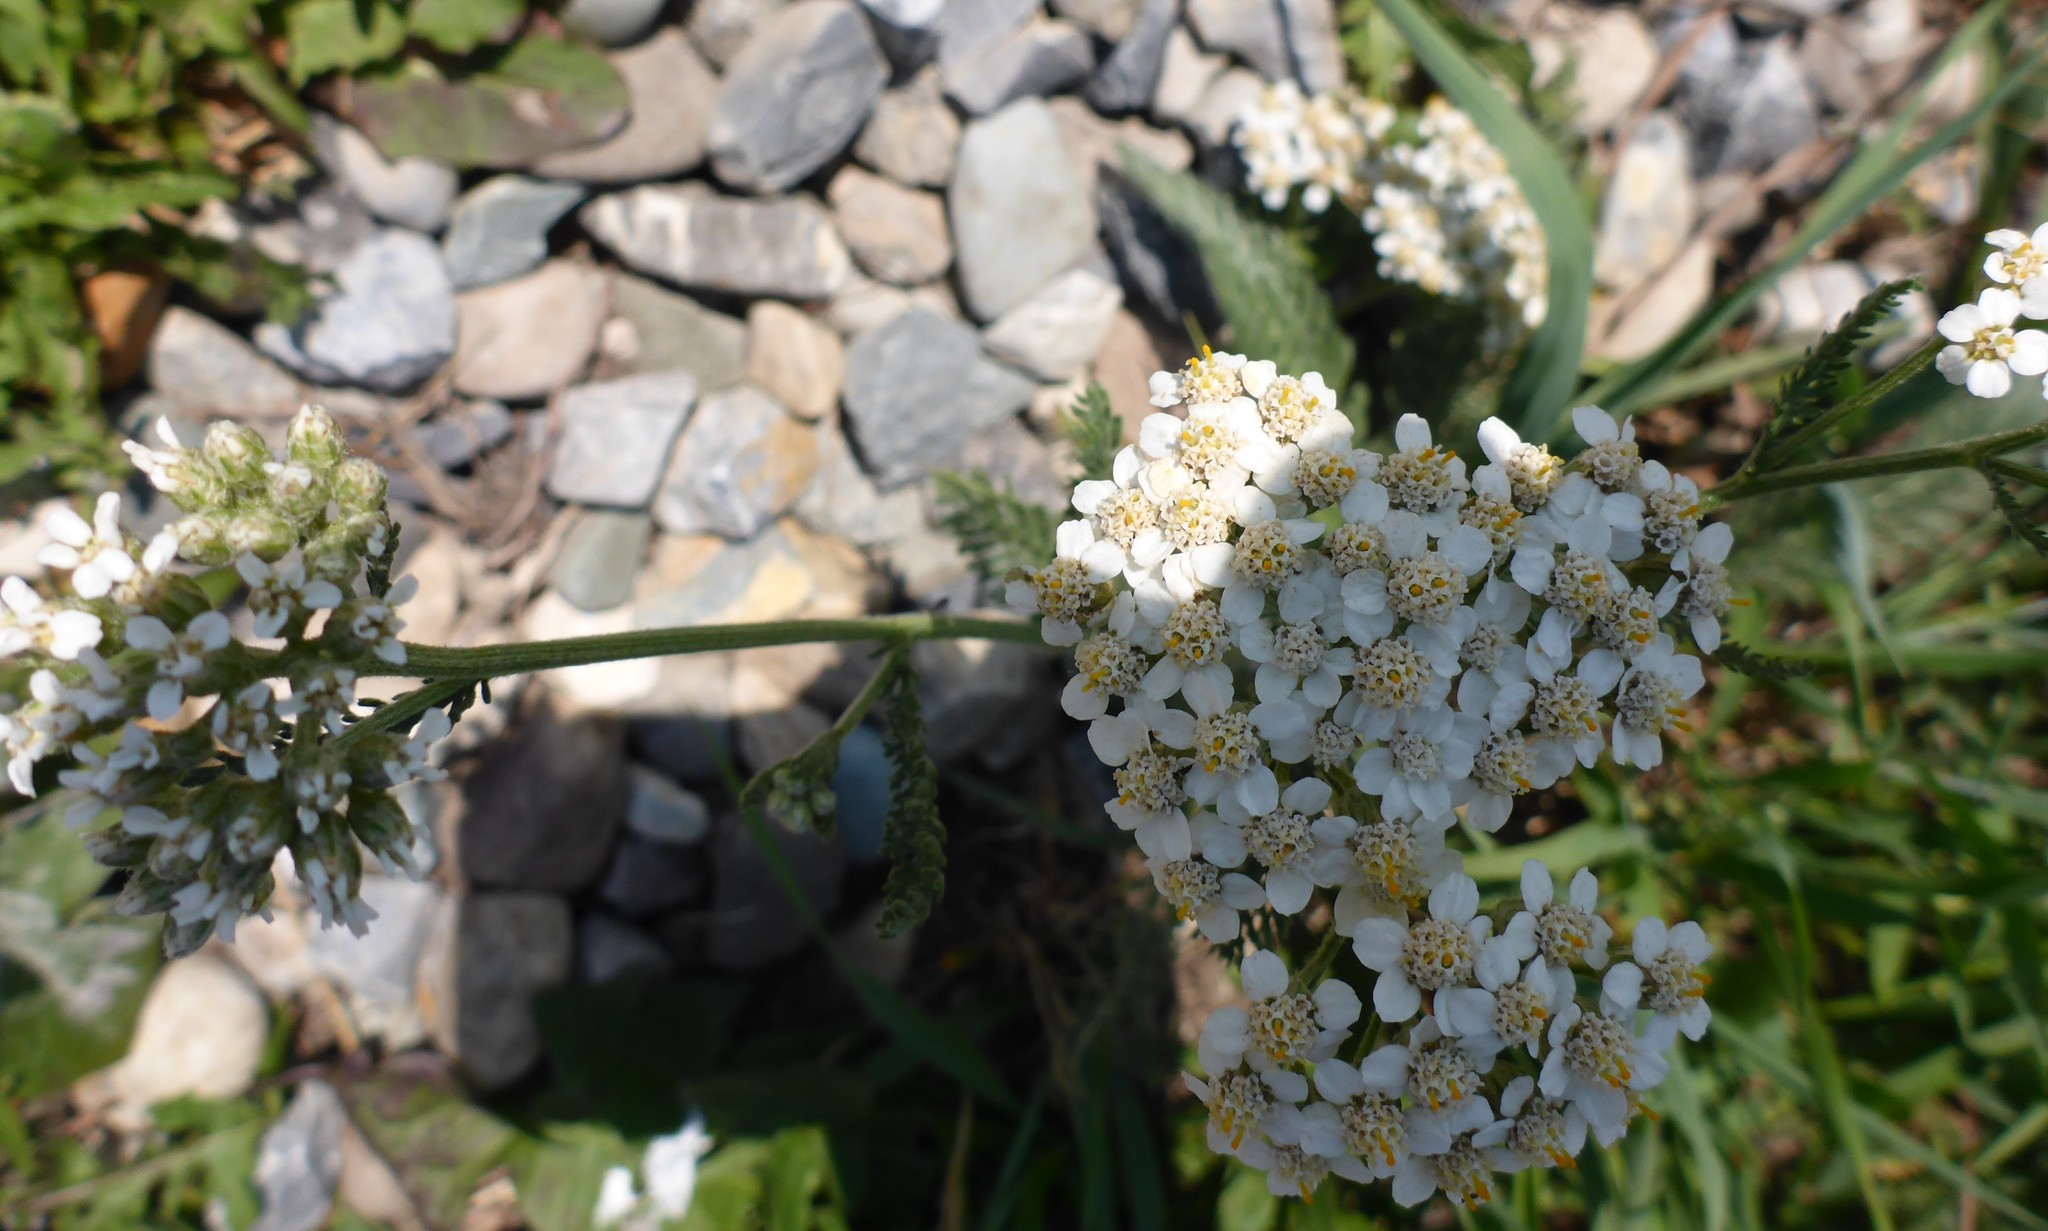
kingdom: Plantae
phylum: Tracheophyta
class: Magnoliopsida
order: Asterales
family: Asteraceae
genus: Achillea
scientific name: Achillea millefolium
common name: Yarrow
